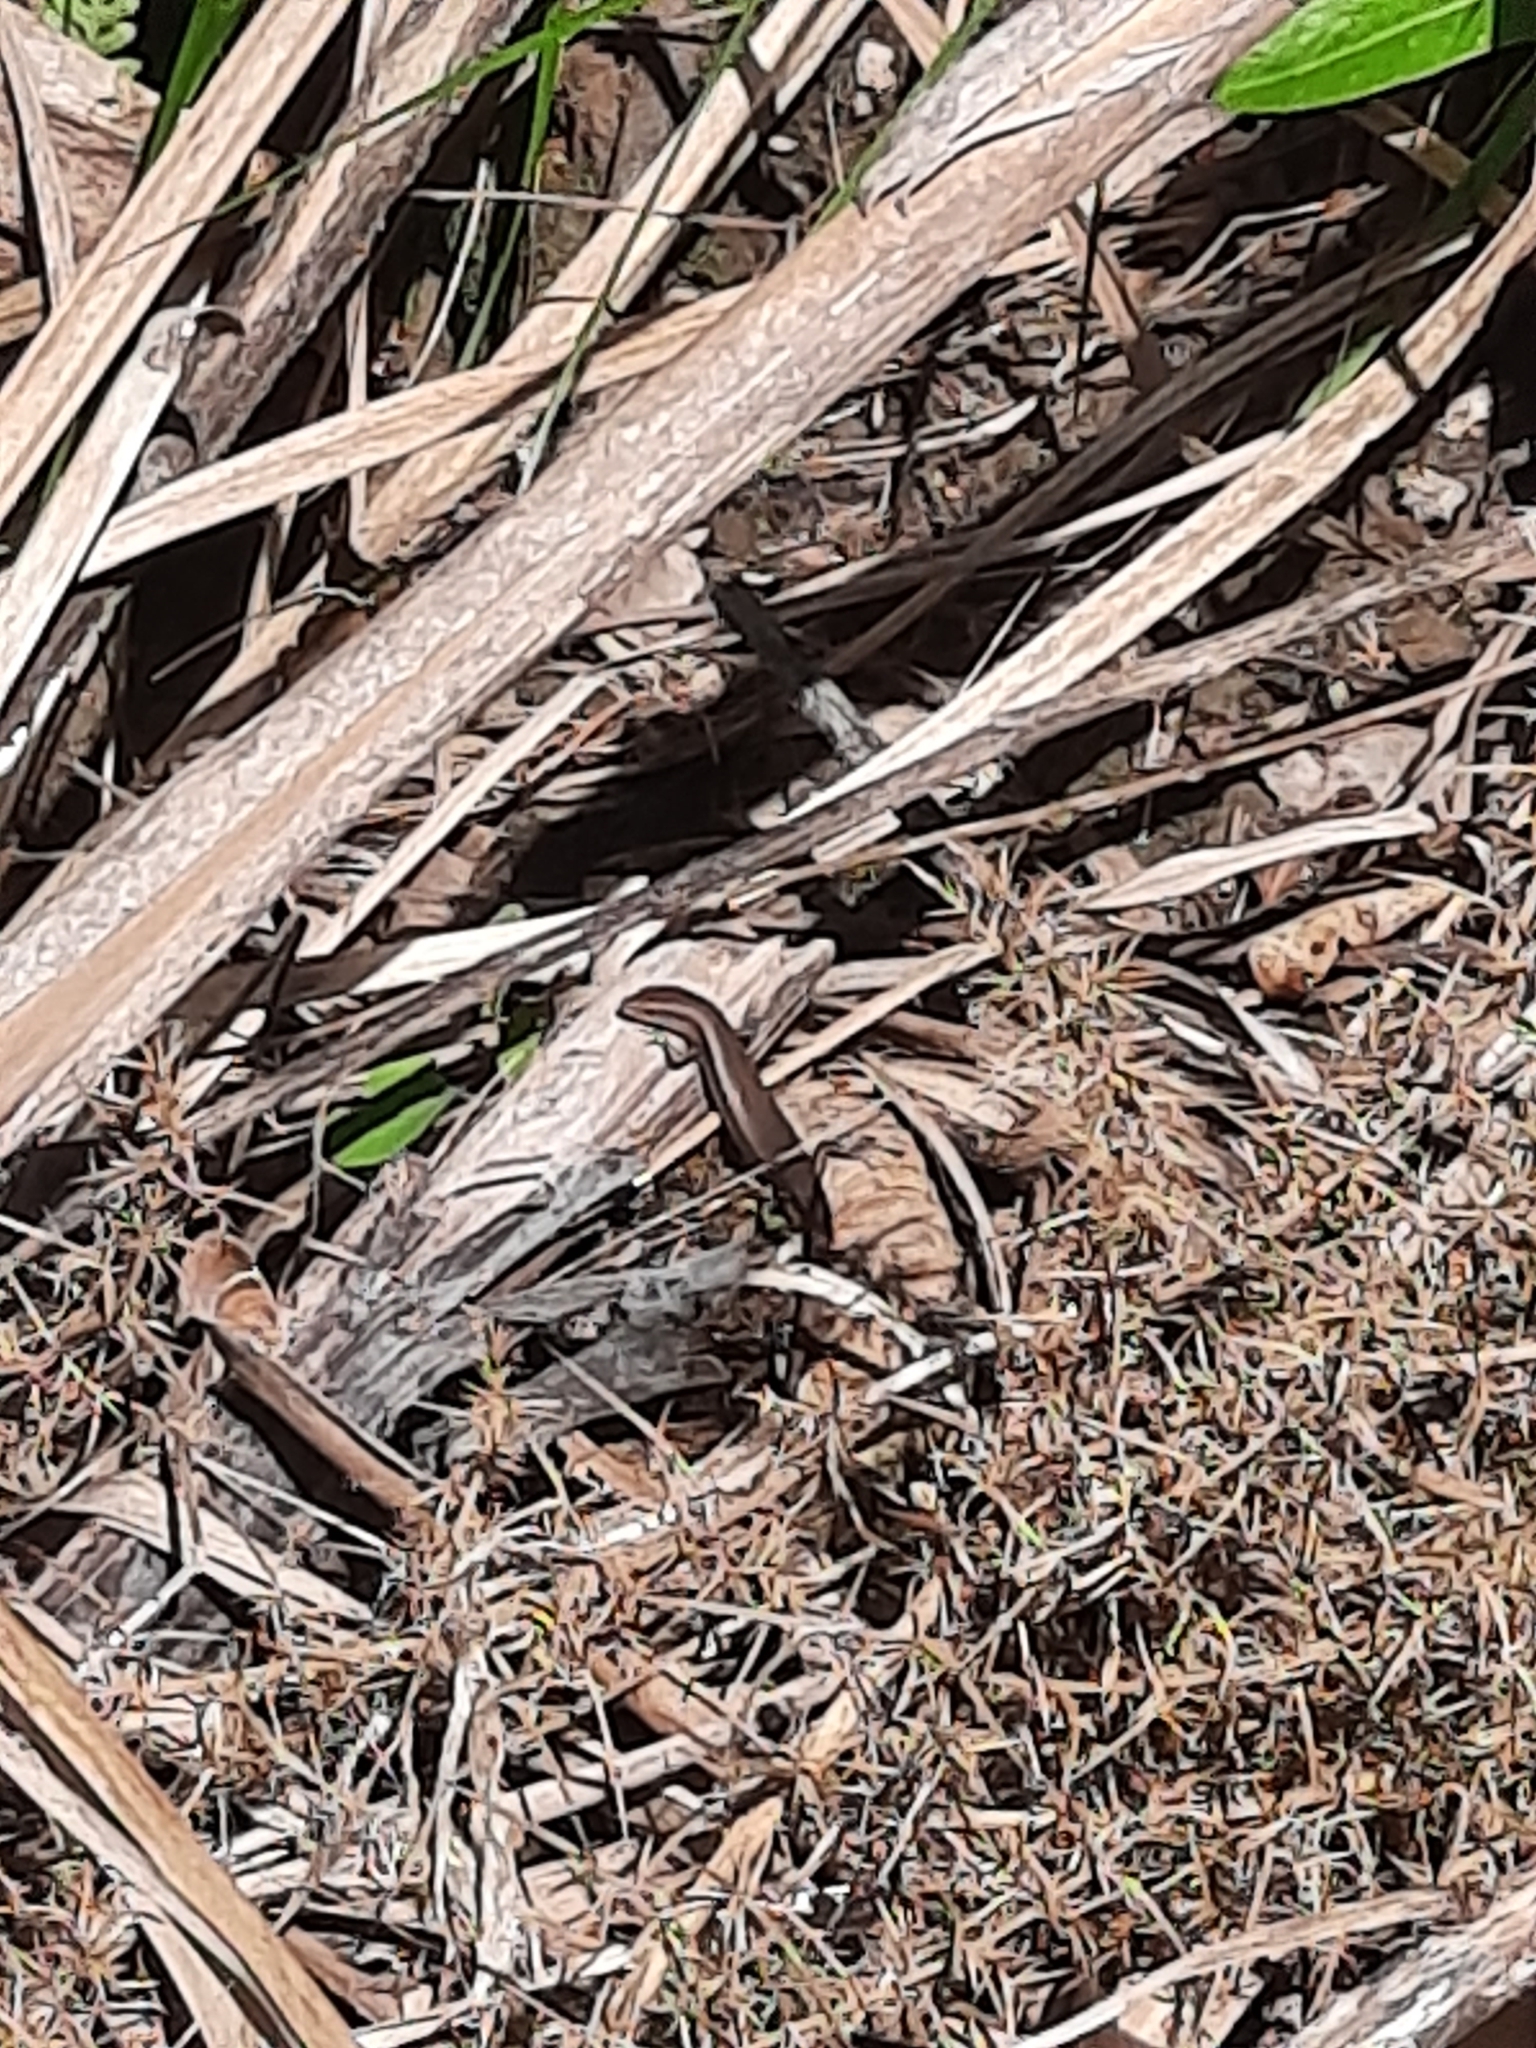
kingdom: Animalia
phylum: Chordata
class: Squamata
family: Scincidae
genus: Lampropholis
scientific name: Lampropholis delicata
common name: Plague skink
